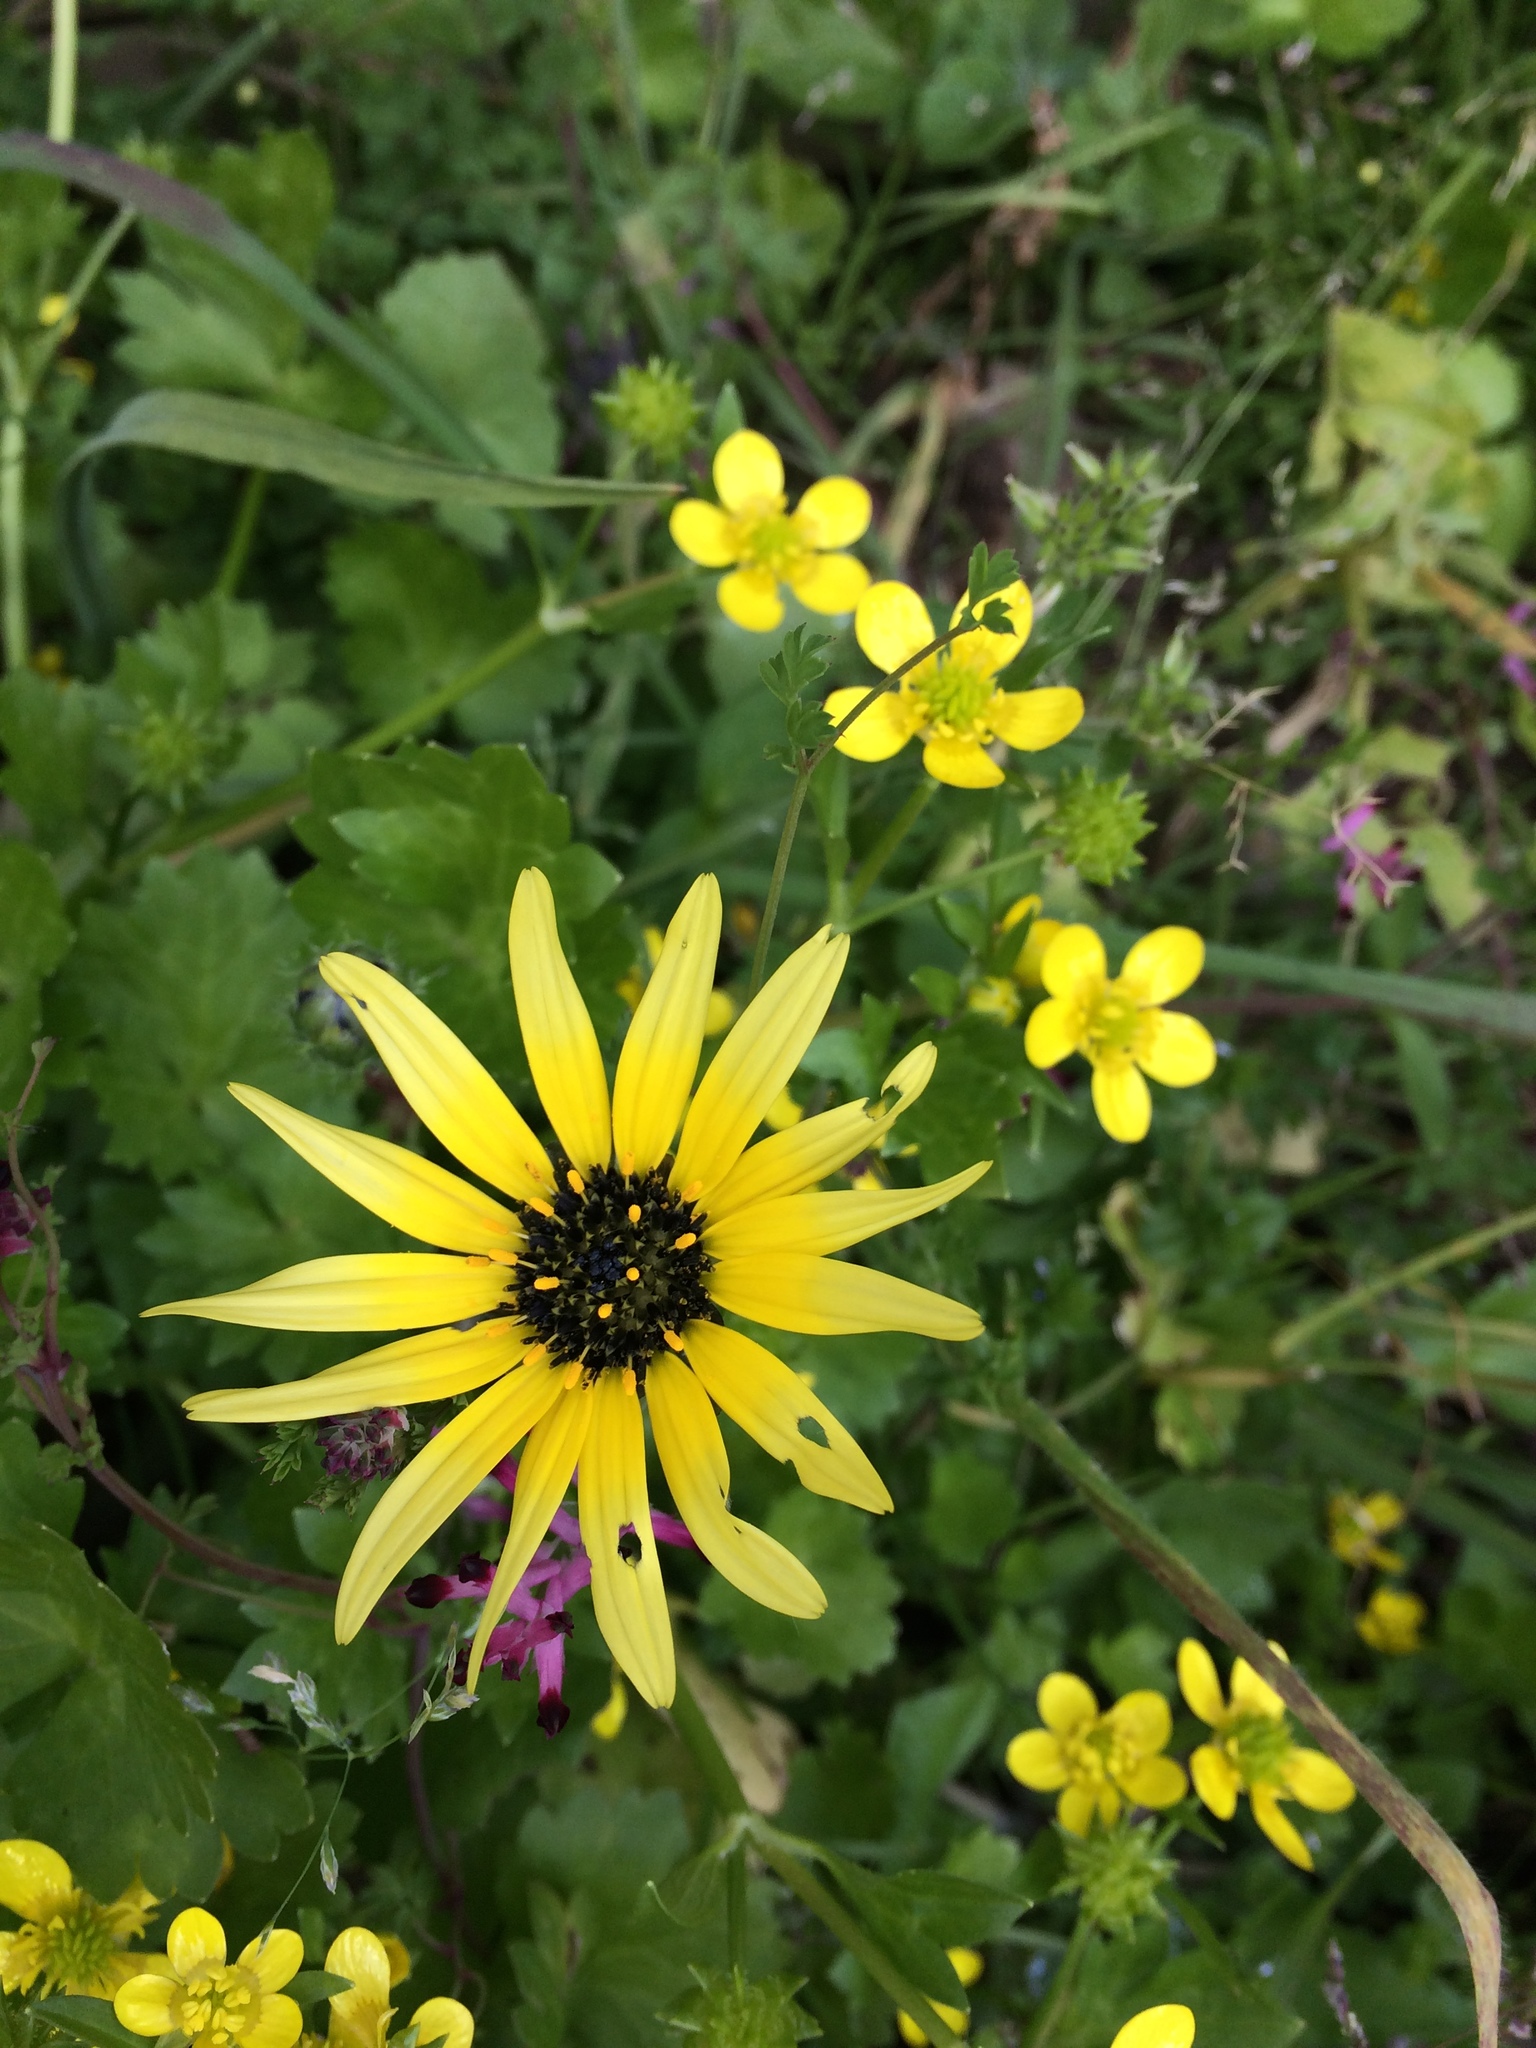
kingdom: Plantae
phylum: Tracheophyta
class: Magnoliopsida
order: Asterales
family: Asteraceae
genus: Arctotheca
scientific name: Arctotheca calendula
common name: Capeweed
